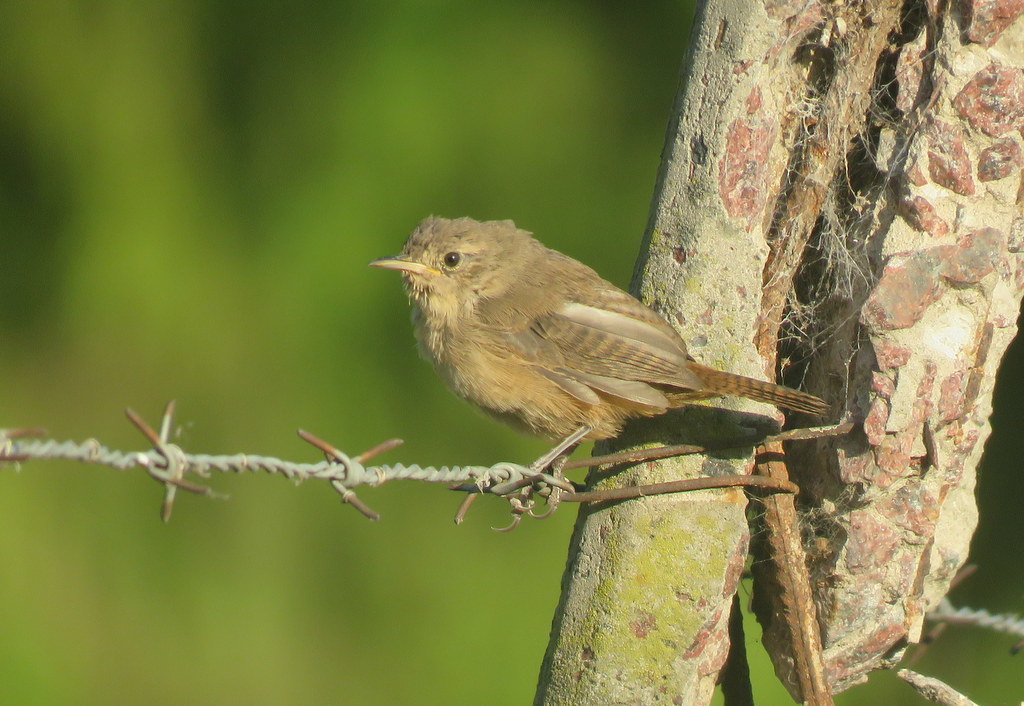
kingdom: Animalia
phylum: Chordata
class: Aves
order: Passeriformes
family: Troglodytidae
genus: Troglodytes
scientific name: Troglodytes aedon
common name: House wren
